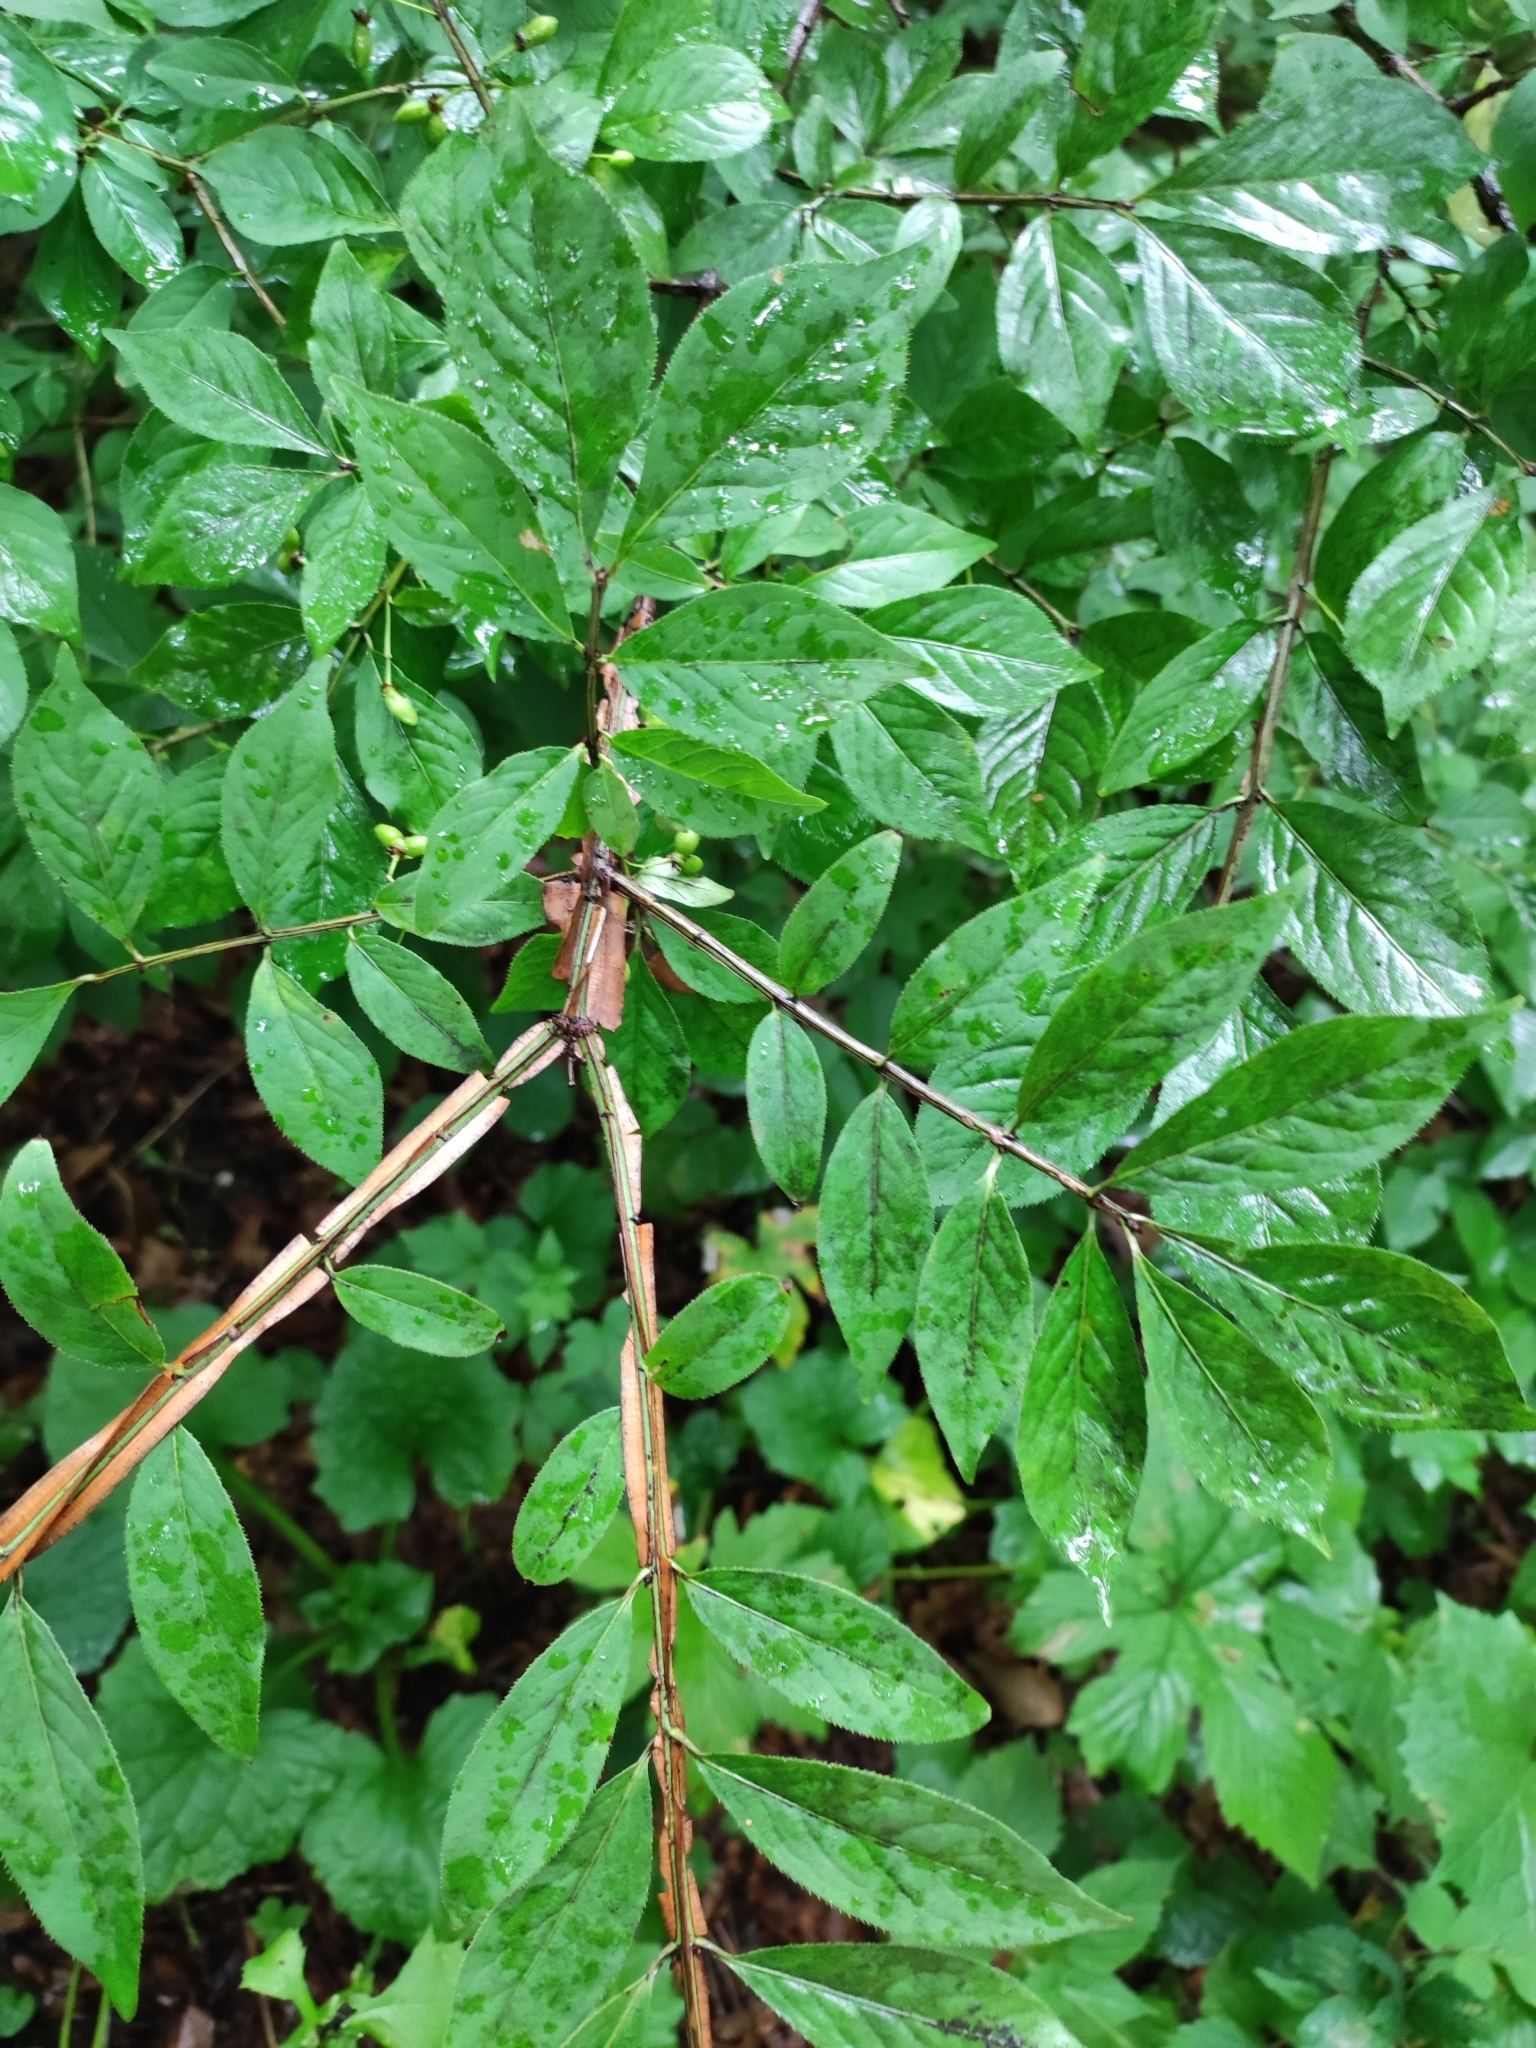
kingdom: Plantae
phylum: Tracheophyta
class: Magnoliopsida
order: Celastrales
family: Celastraceae
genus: Euonymus
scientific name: Euonymus alatus
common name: Winged euonymus
